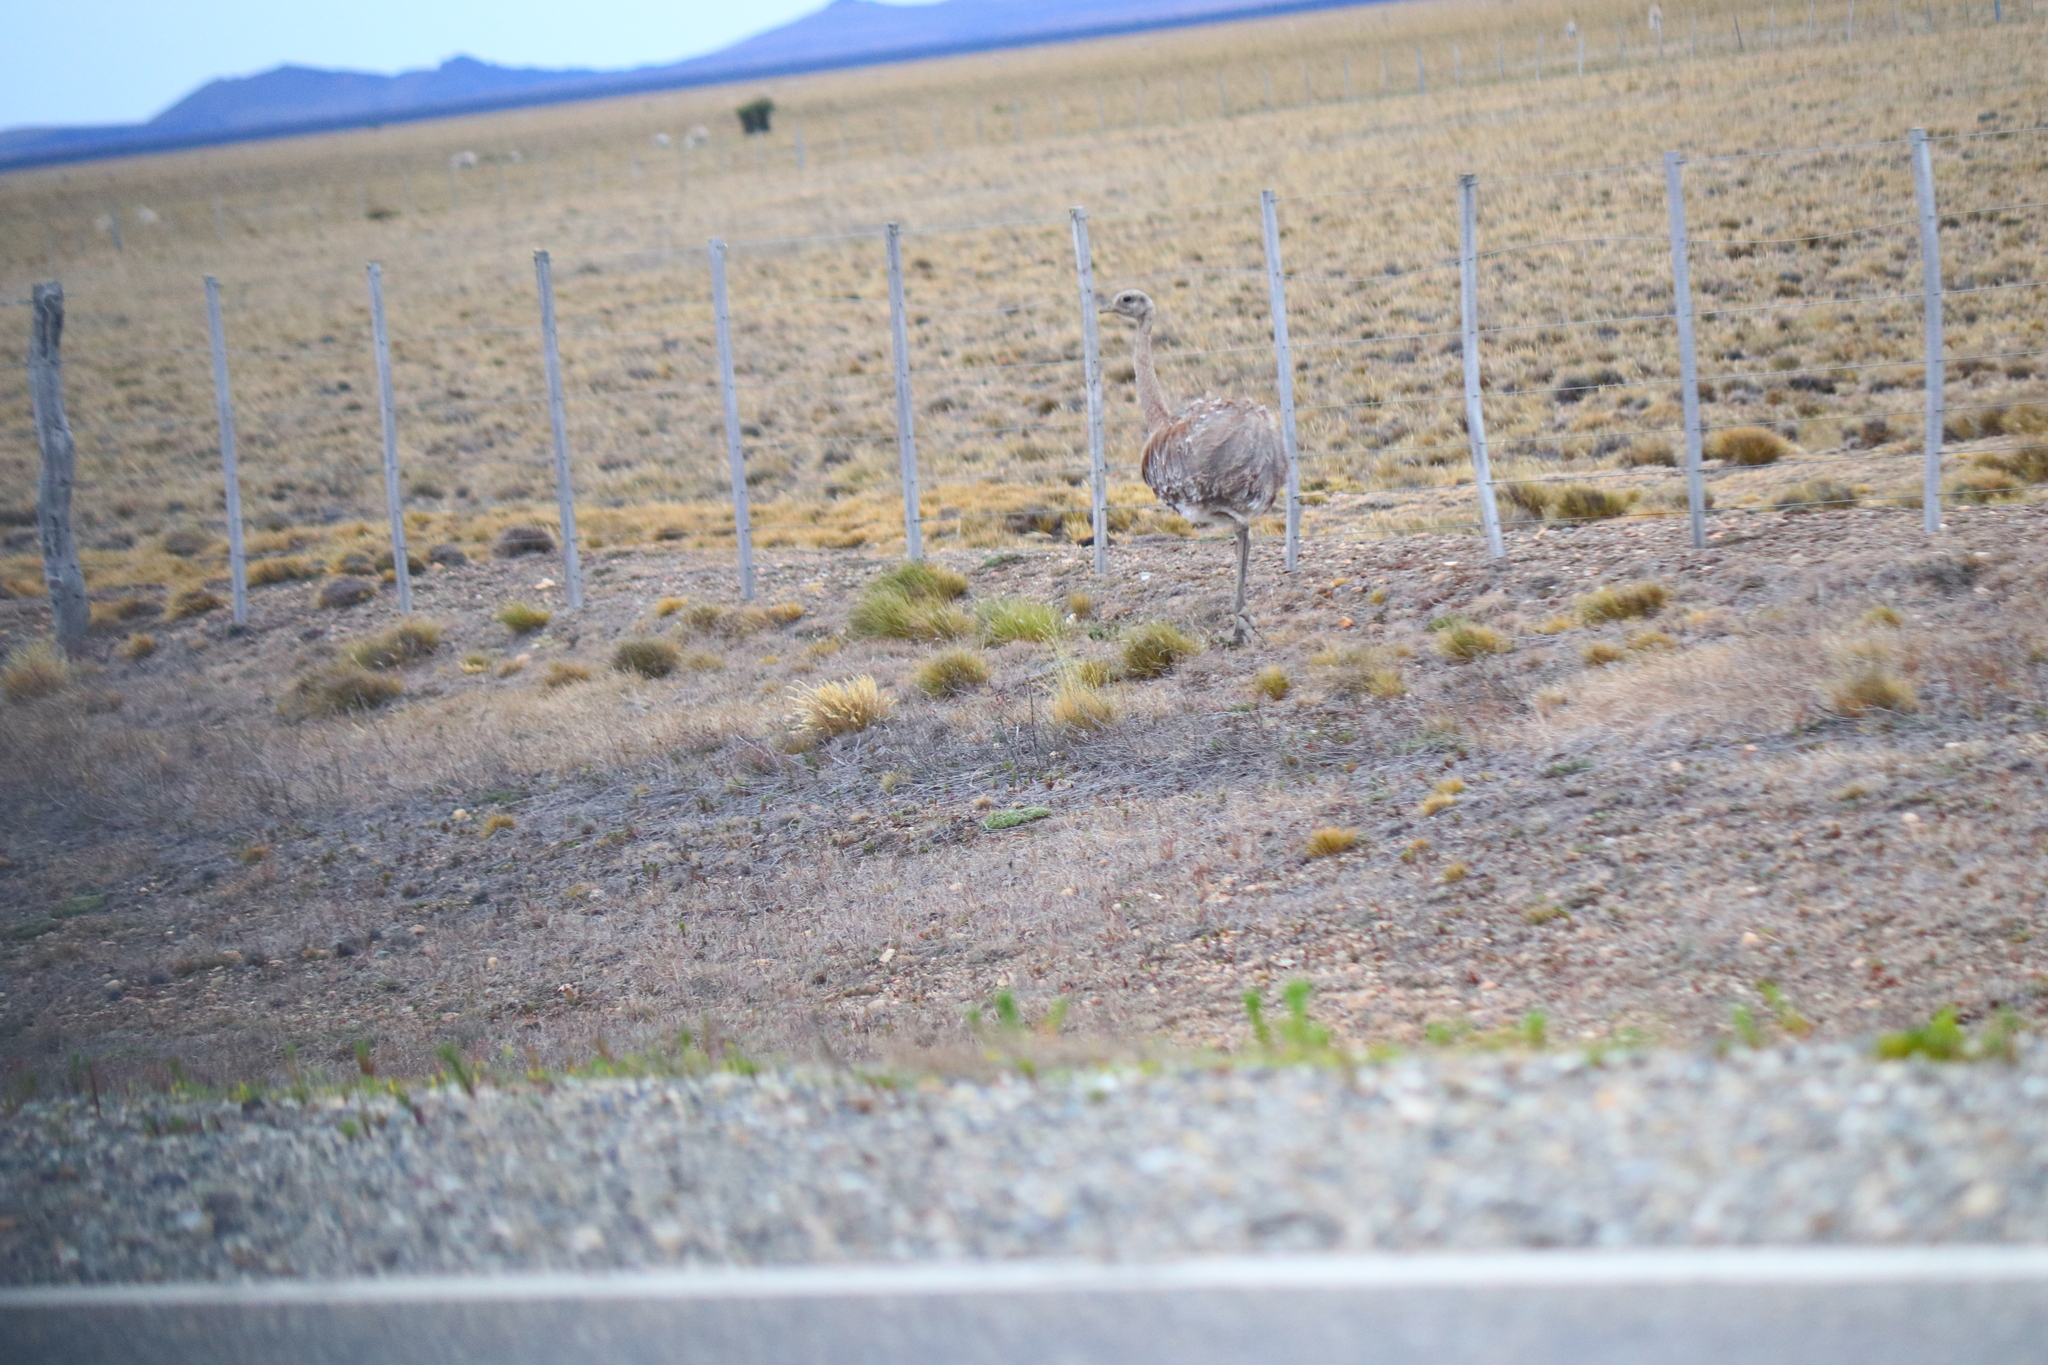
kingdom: Animalia
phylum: Chordata
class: Aves
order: Rheiformes
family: Rheidae
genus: Rhea
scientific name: Rhea pennata
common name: Lesser rhea
